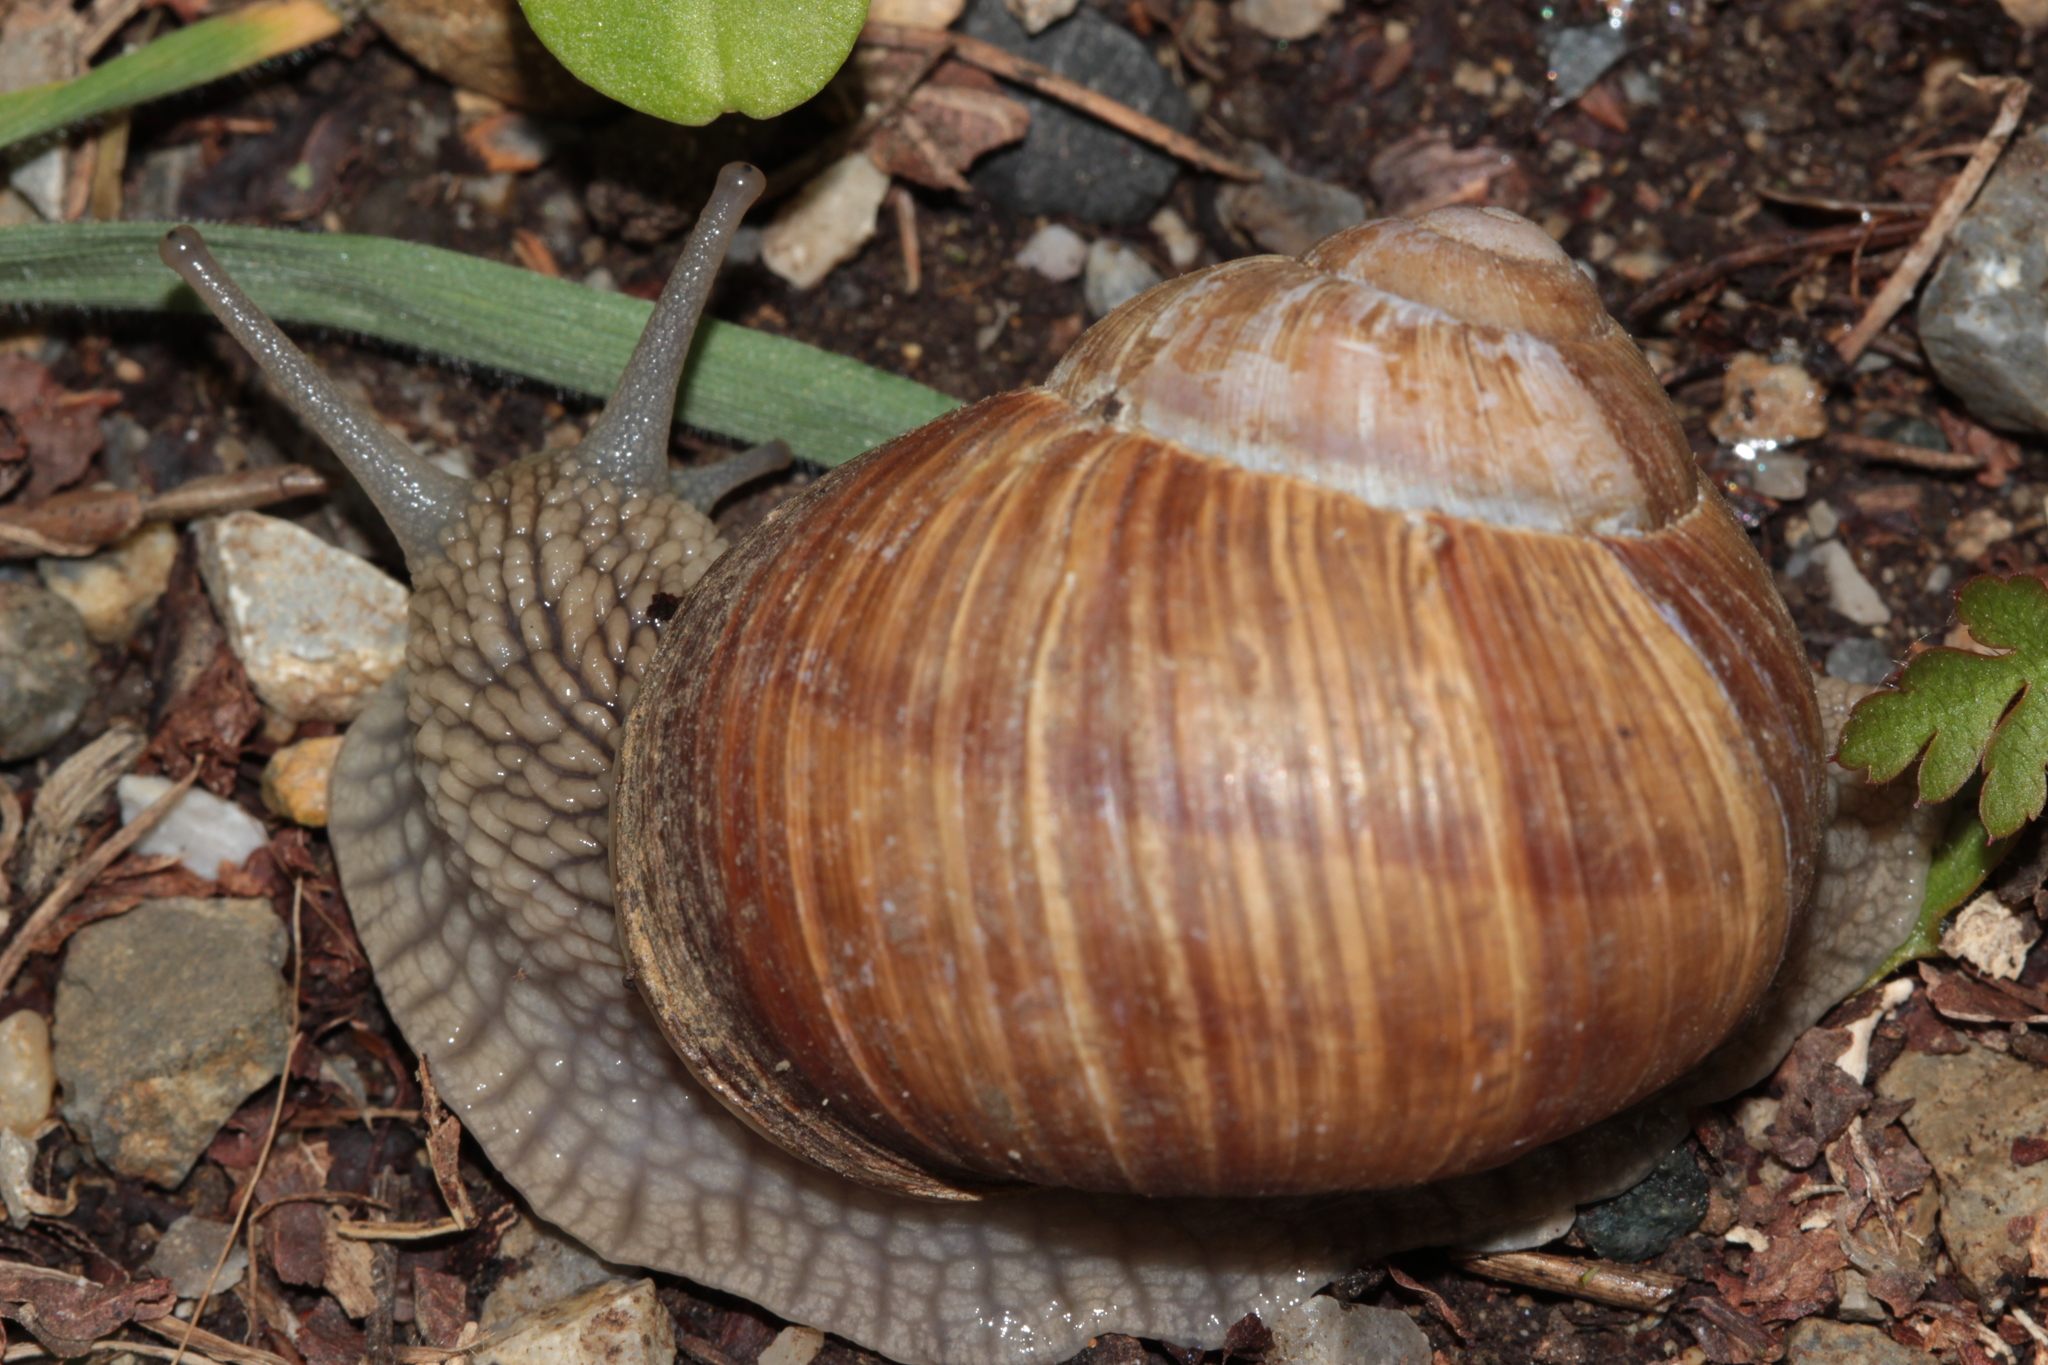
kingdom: Animalia
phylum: Mollusca
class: Gastropoda
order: Stylommatophora
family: Helicidae
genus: Helix
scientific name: Helix pomatia
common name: Roman snail
